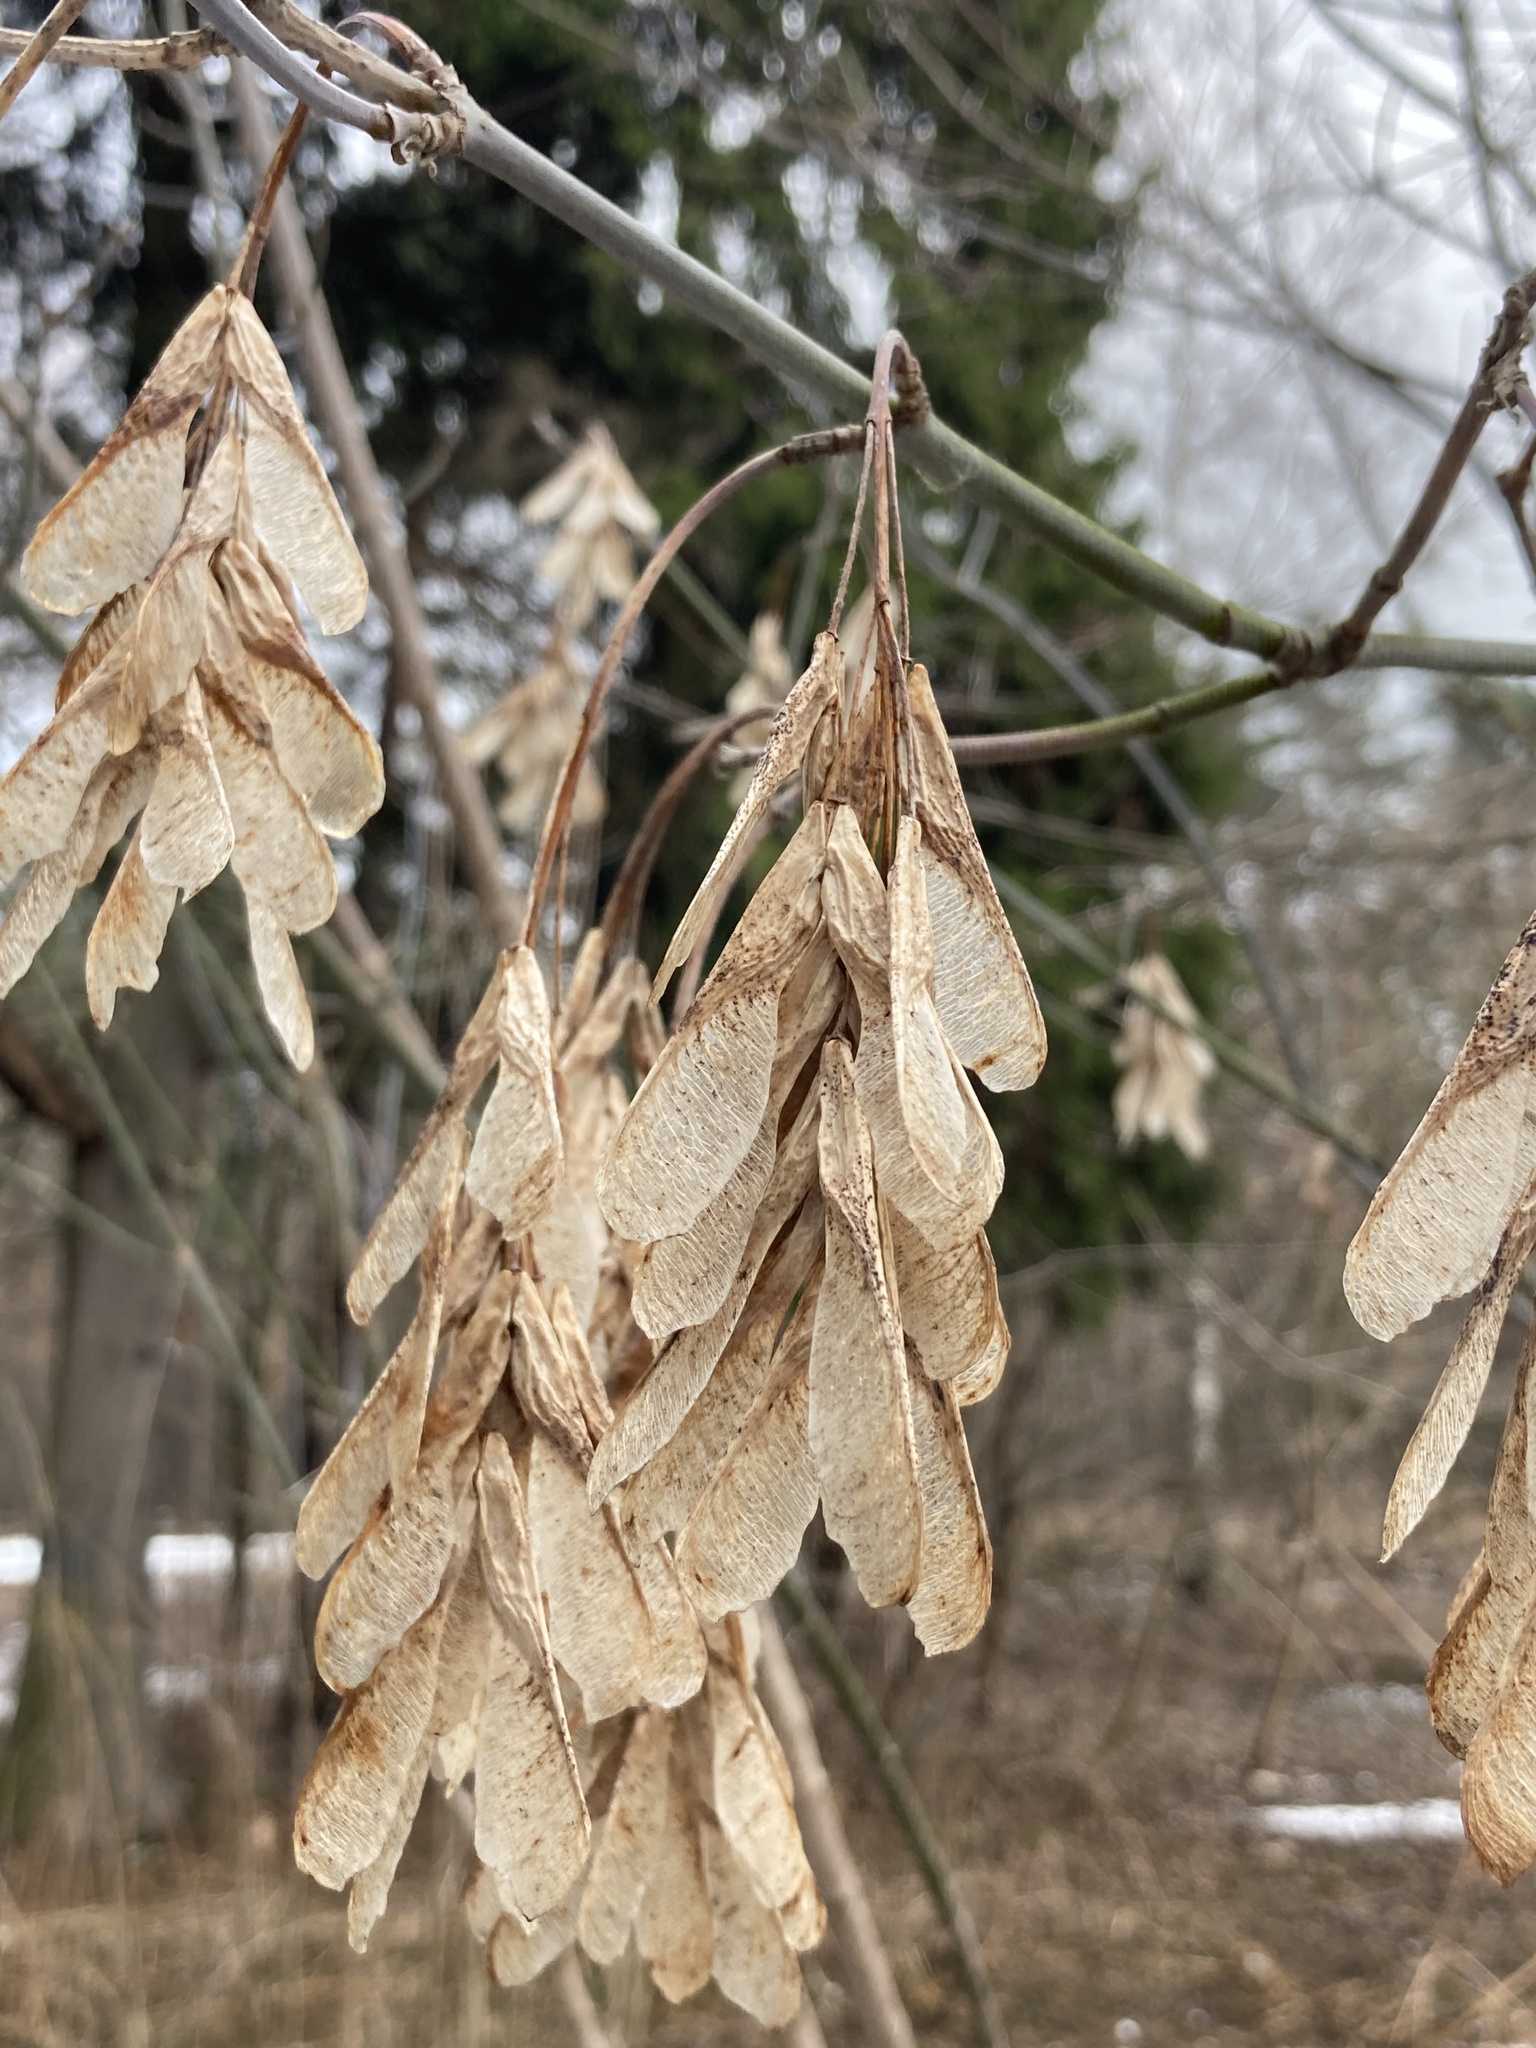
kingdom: Plantae
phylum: Tracheophyta
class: Magnoliopsida
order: Sapindales
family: Sapindaceae
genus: Acer
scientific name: Acer negundo
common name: Ashleaf maple
